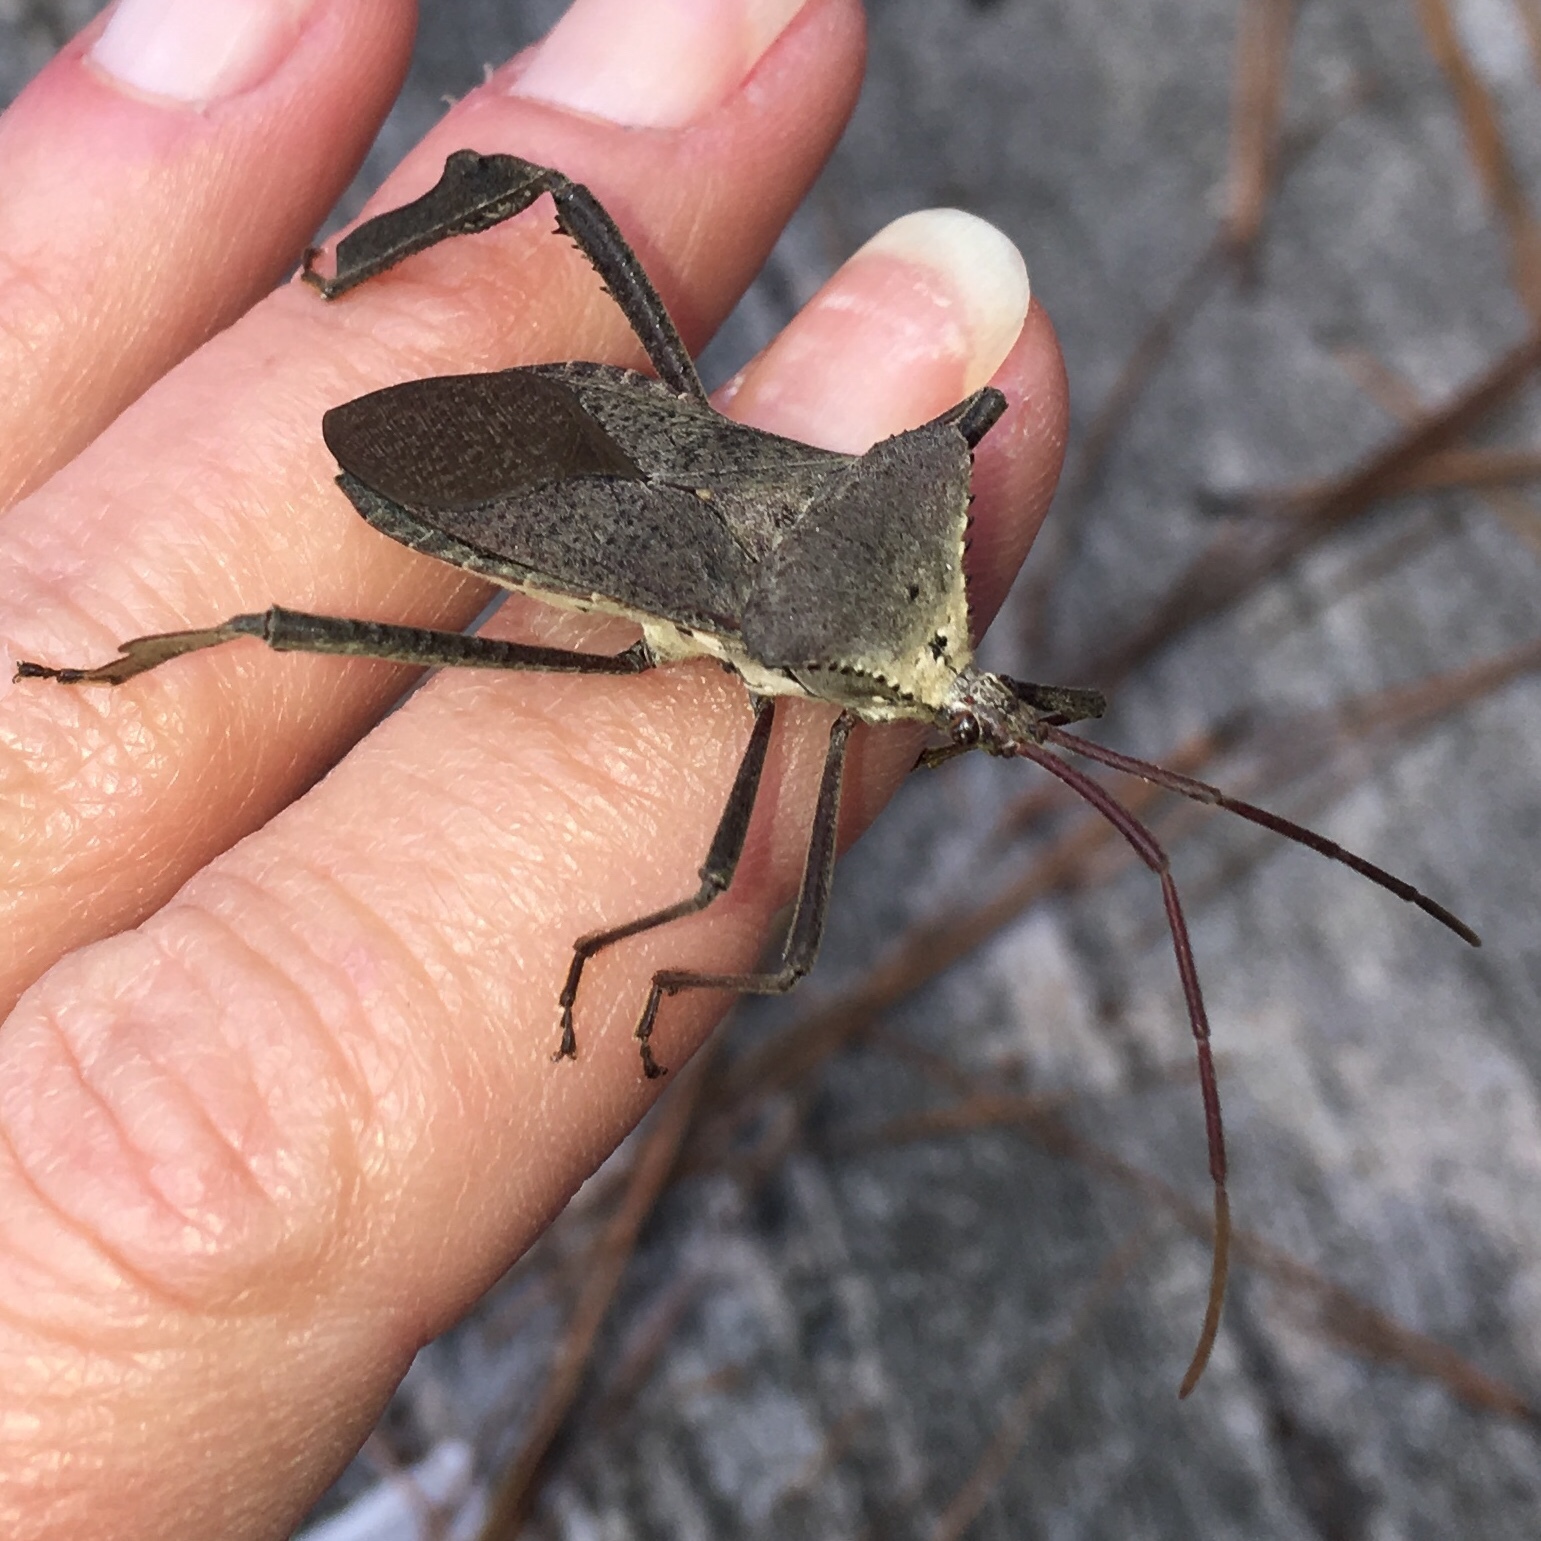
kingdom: Animalia
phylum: Arthropoda
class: Insecta
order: Hemiptera
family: Coreidae
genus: Acanthocephala
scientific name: Acanthocephala declivis
